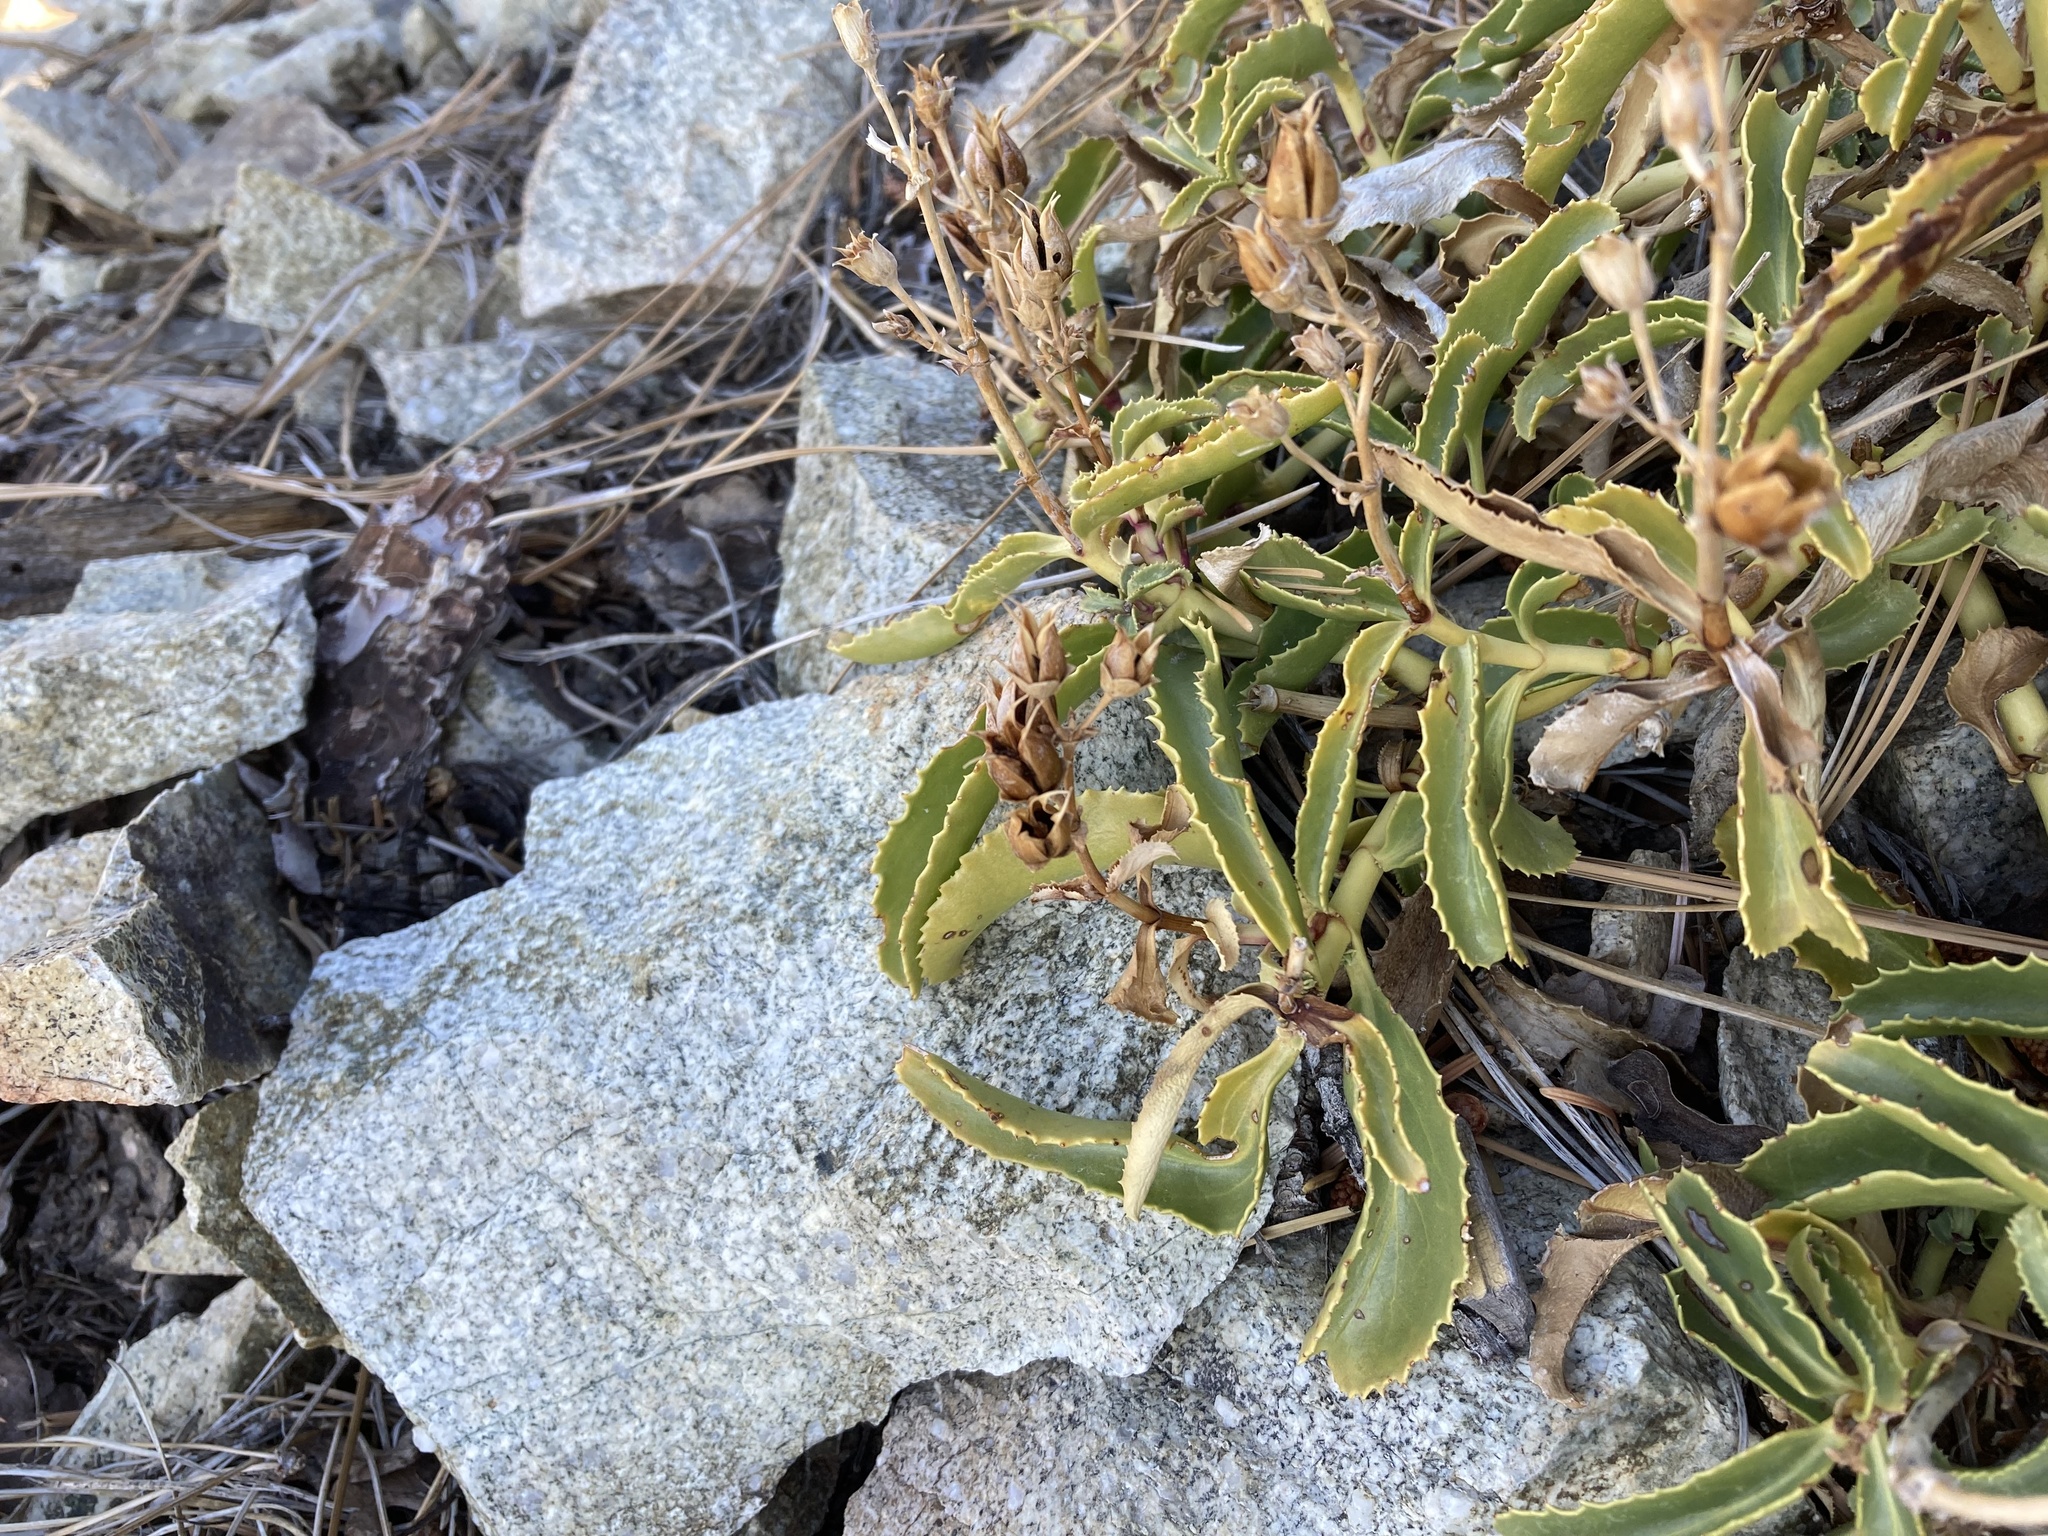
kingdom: Plantae
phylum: Tracheophyta
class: Magnoliopsida
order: Lamiales
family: Plantaginaceae
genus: Penstemon
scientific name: Penstemon grinnellii
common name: Grinnell's beardtongue
